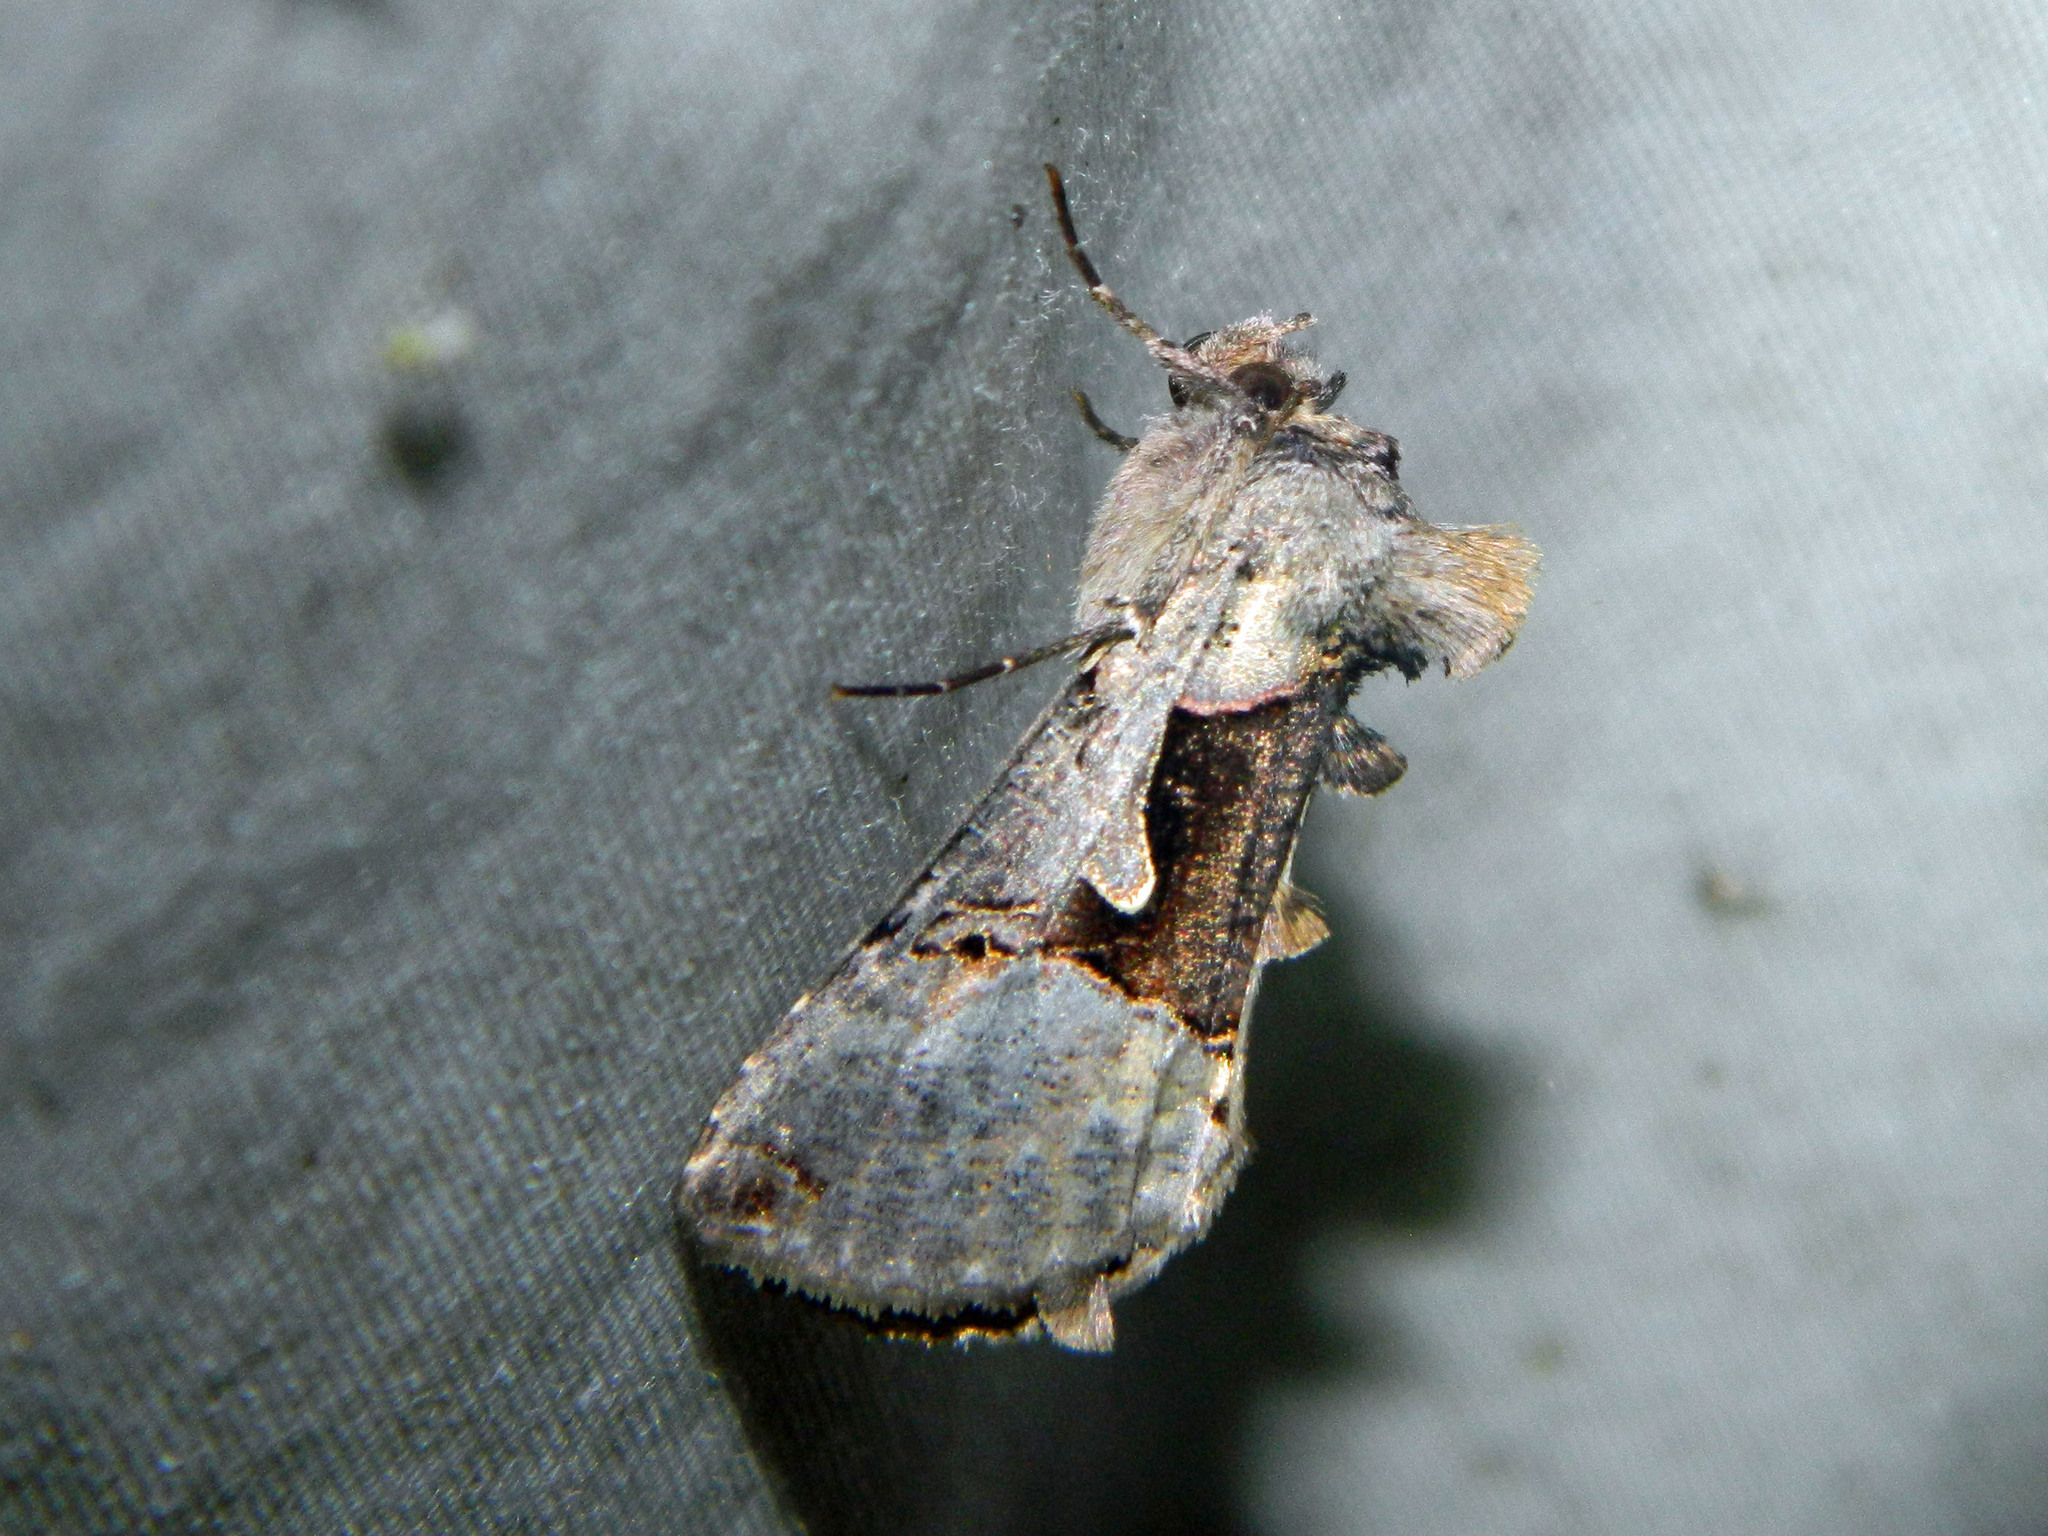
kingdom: Animalia
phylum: Arthropoda
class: Insecta
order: Lepidoptera
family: Noctuidae
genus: Autographa
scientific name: Autographa ampla
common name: Large looper moth
